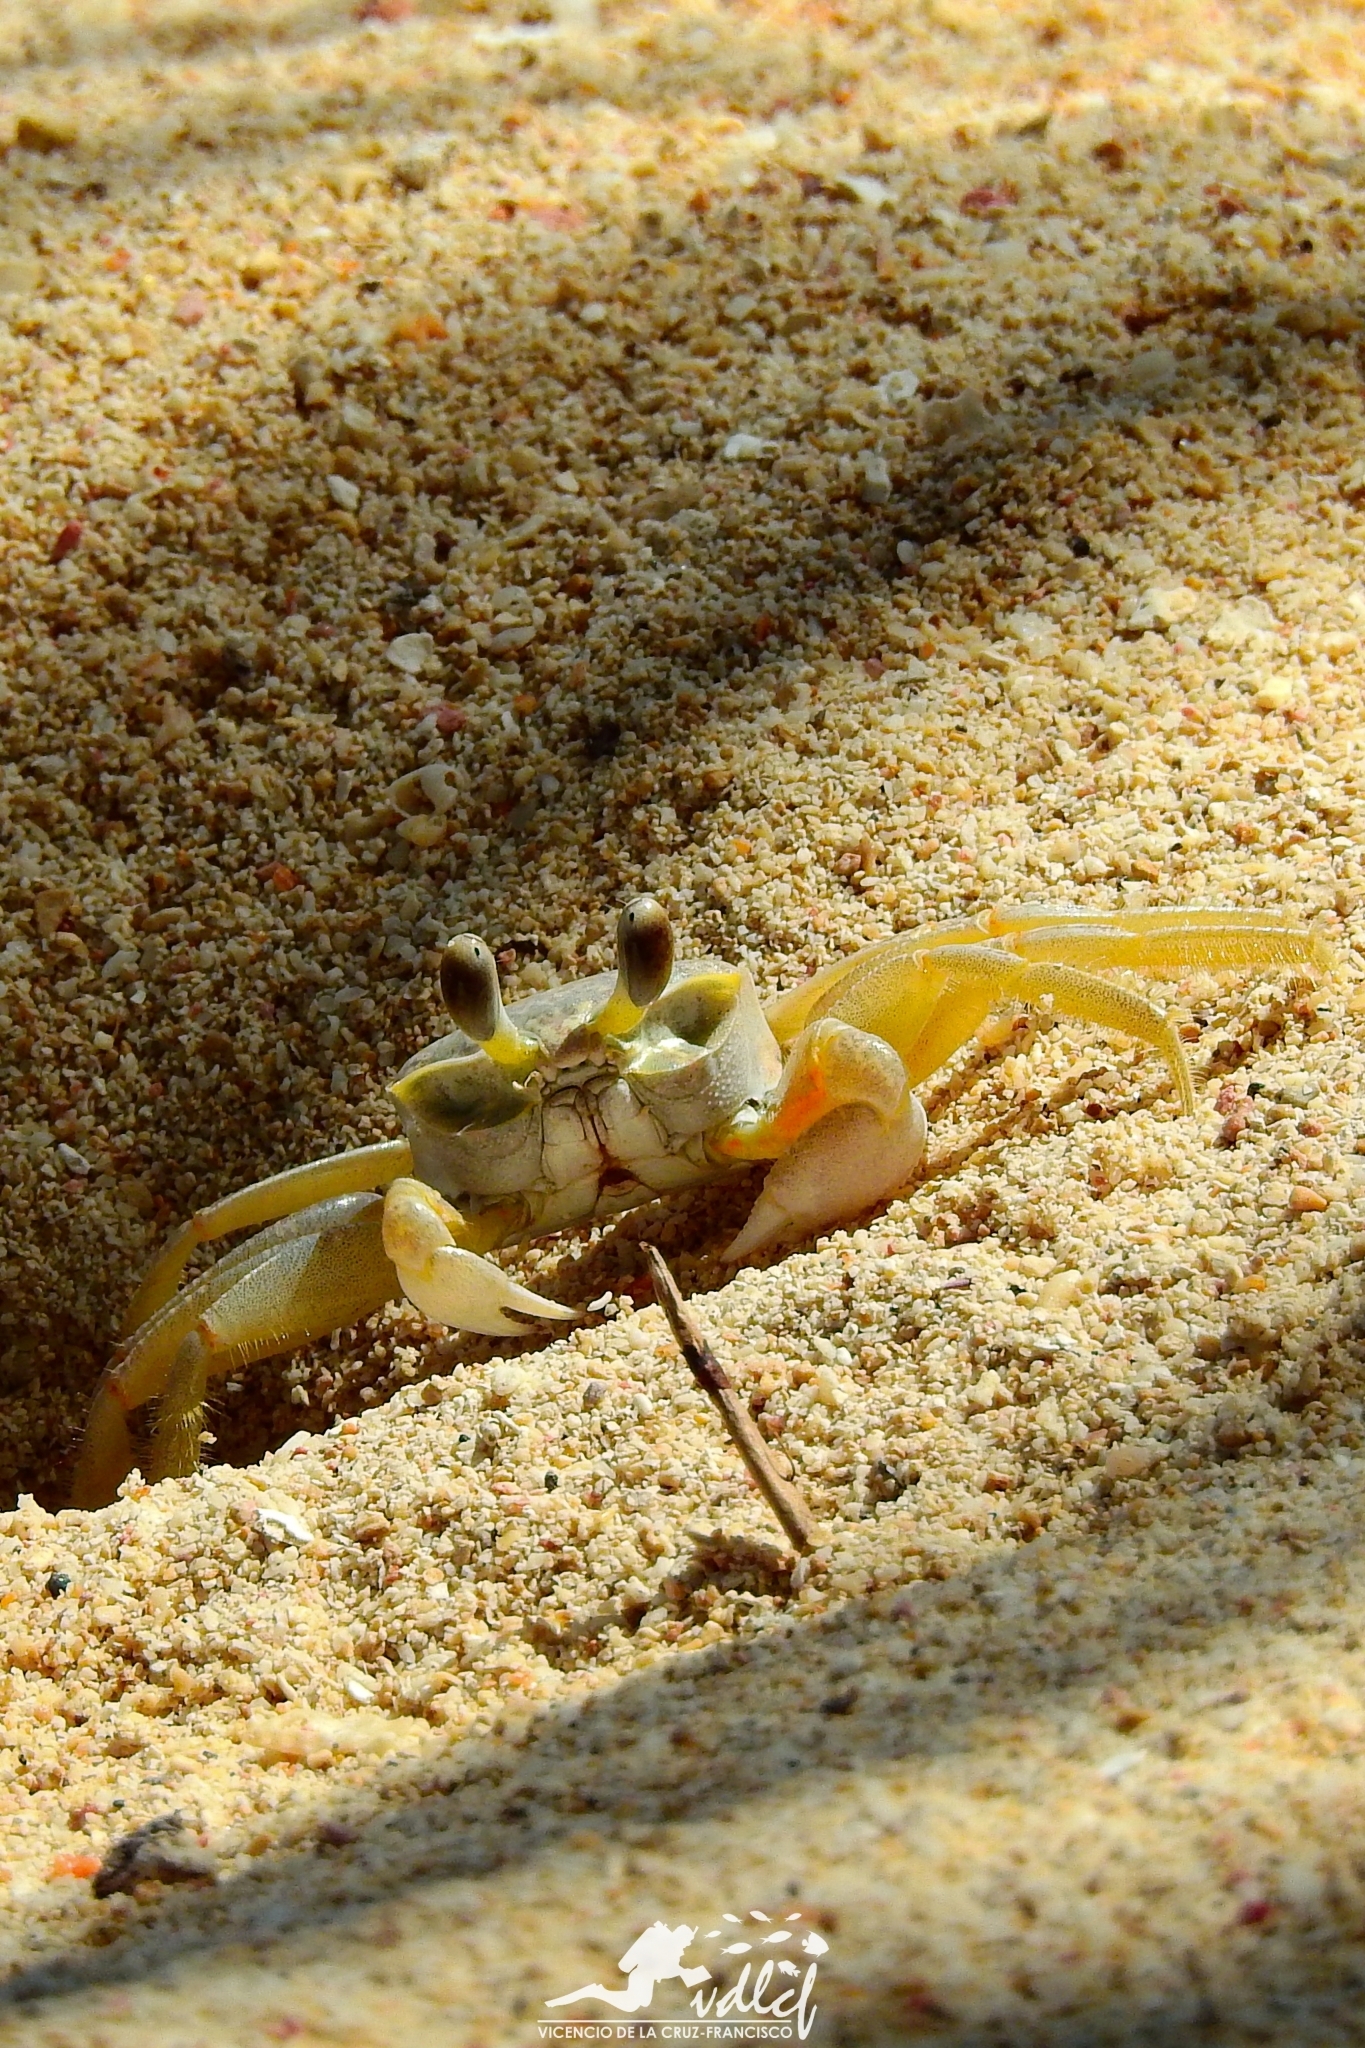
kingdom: Animalia
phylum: Arthropoda
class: Malacostraca
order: Decapoda
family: Ocypodidae
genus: Ocypode
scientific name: Ocypode quadrata
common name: Ghost crab
